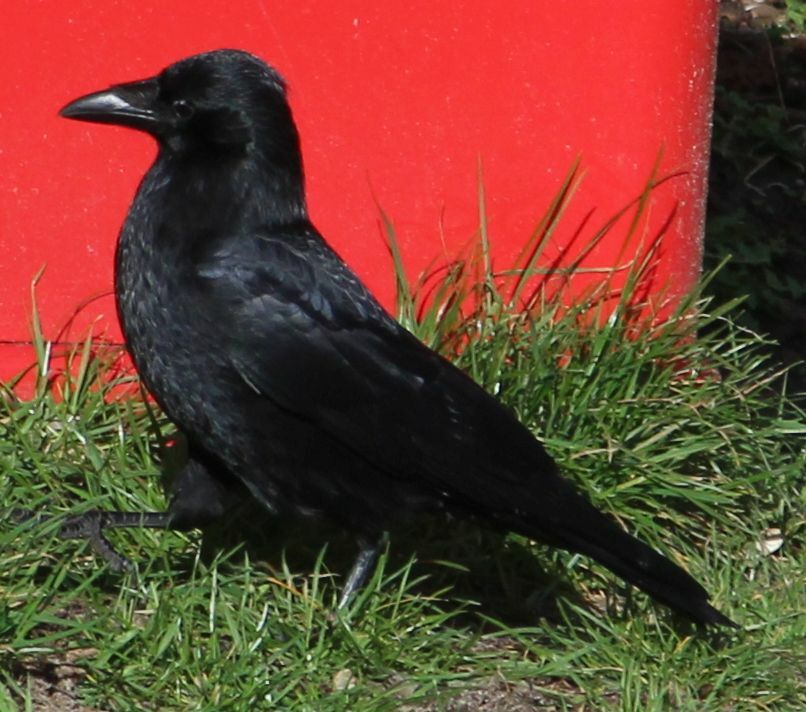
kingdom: Animalia
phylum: Chordata
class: Aves
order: Passeriformes
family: Corvidae
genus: Corvus
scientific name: Corvus corone
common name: Carrion crow
